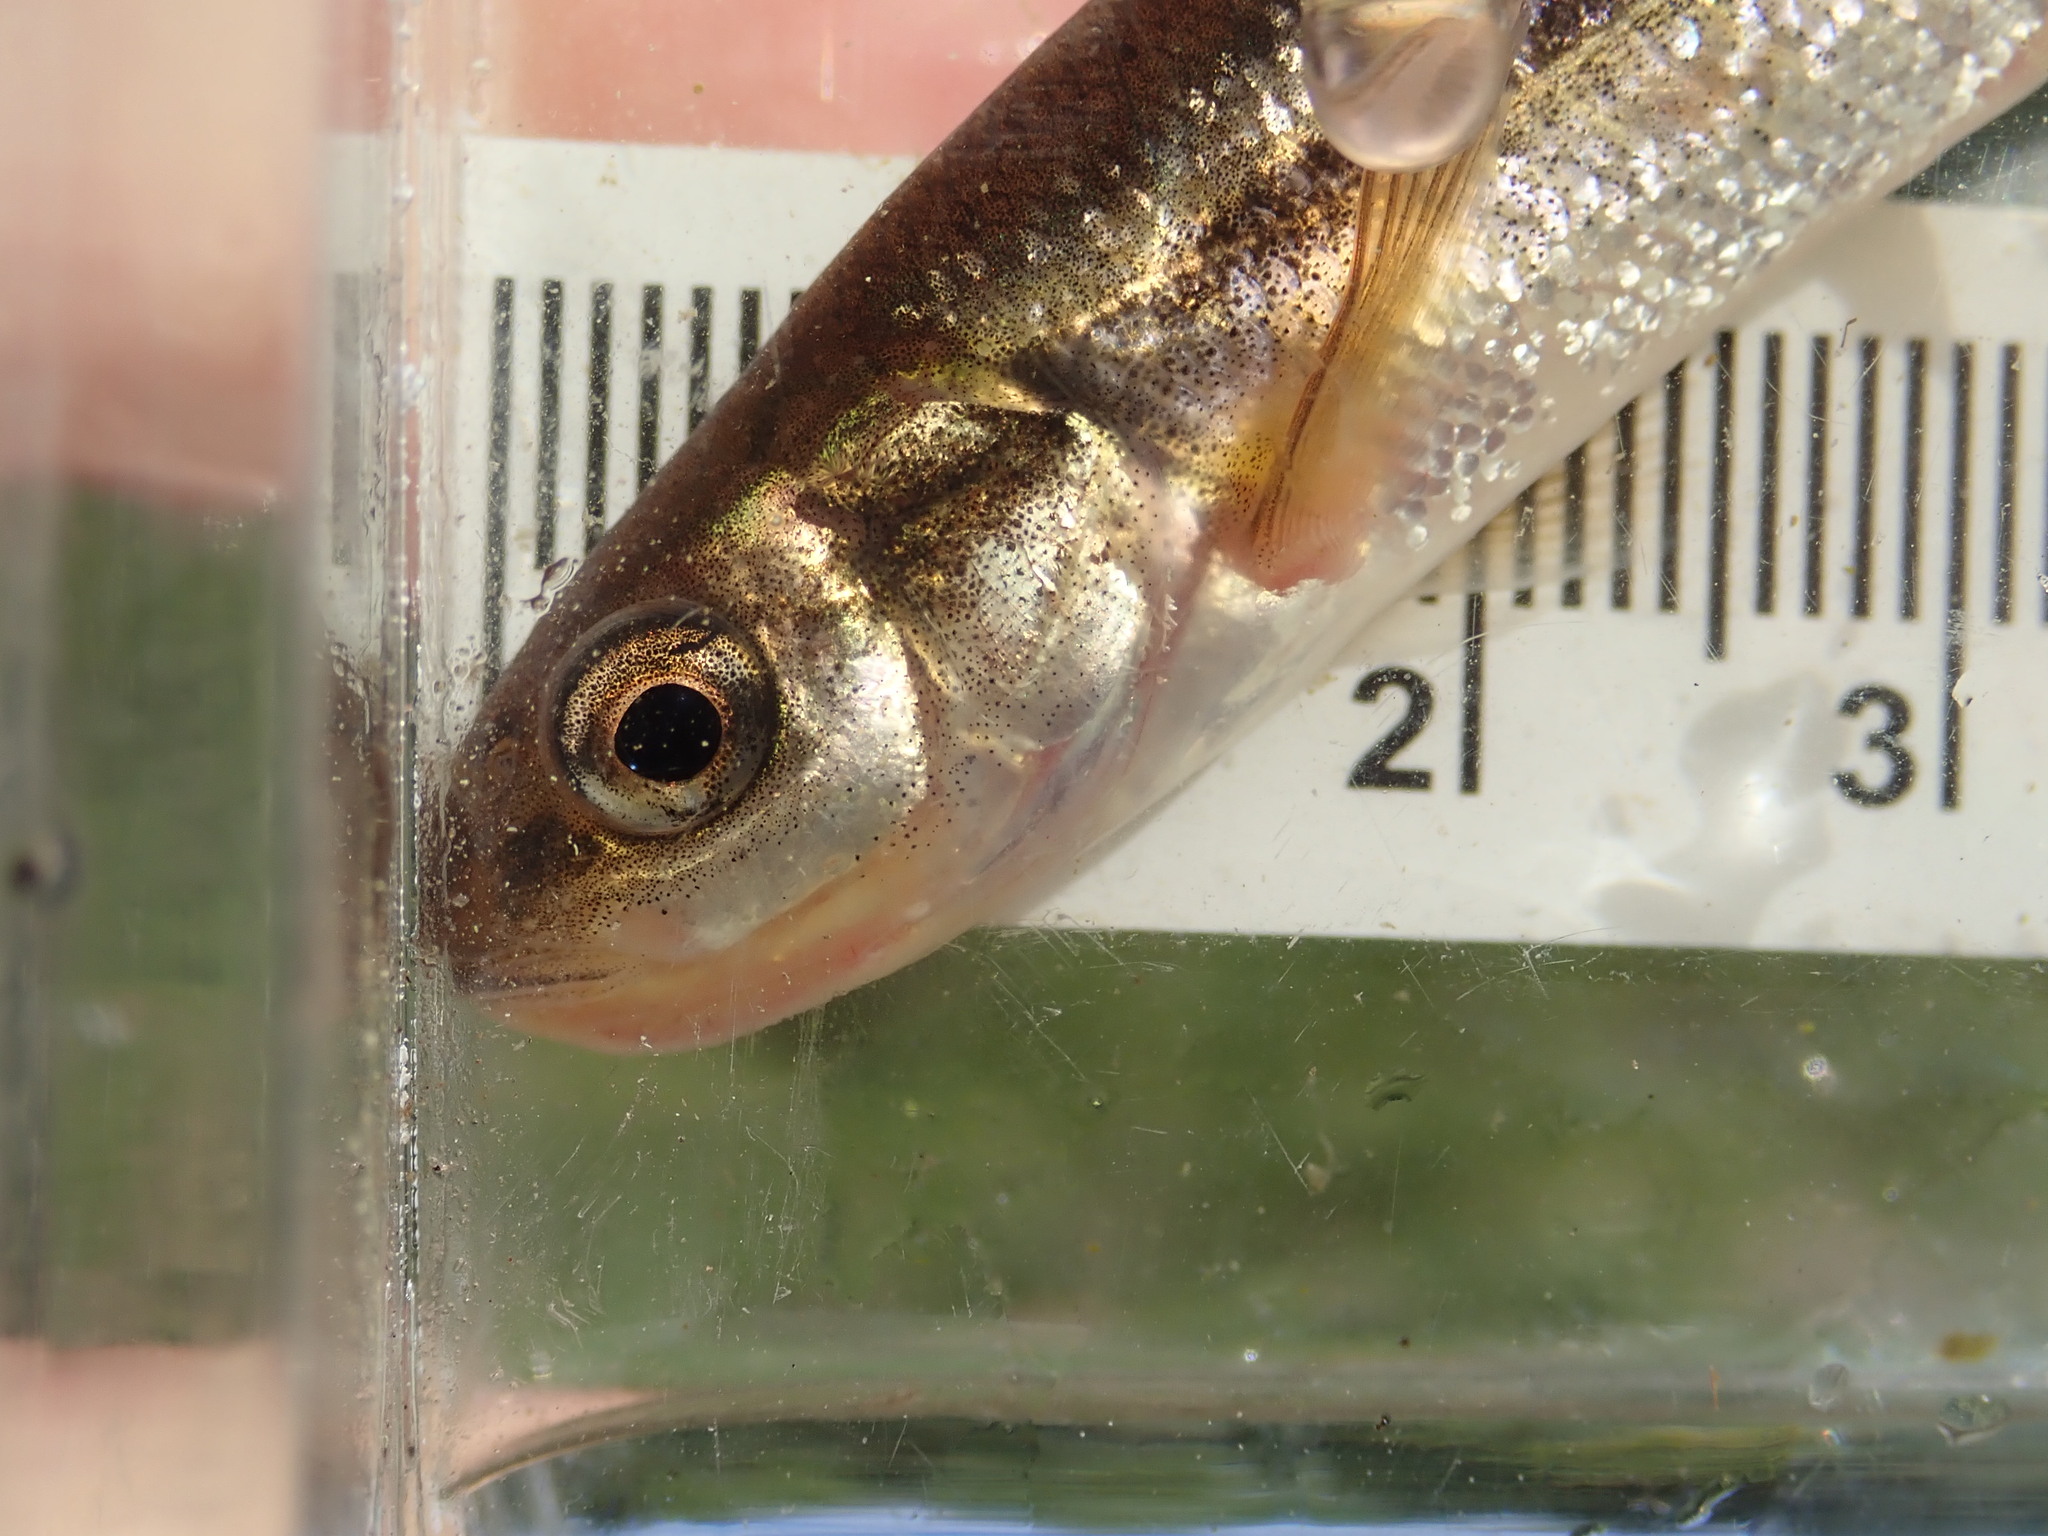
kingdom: Animalia
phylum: Chordata
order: Cypriniformes
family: Cyprinidae
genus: Margariscus
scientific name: Margariscus nachtriebi
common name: Northern pearl dace
